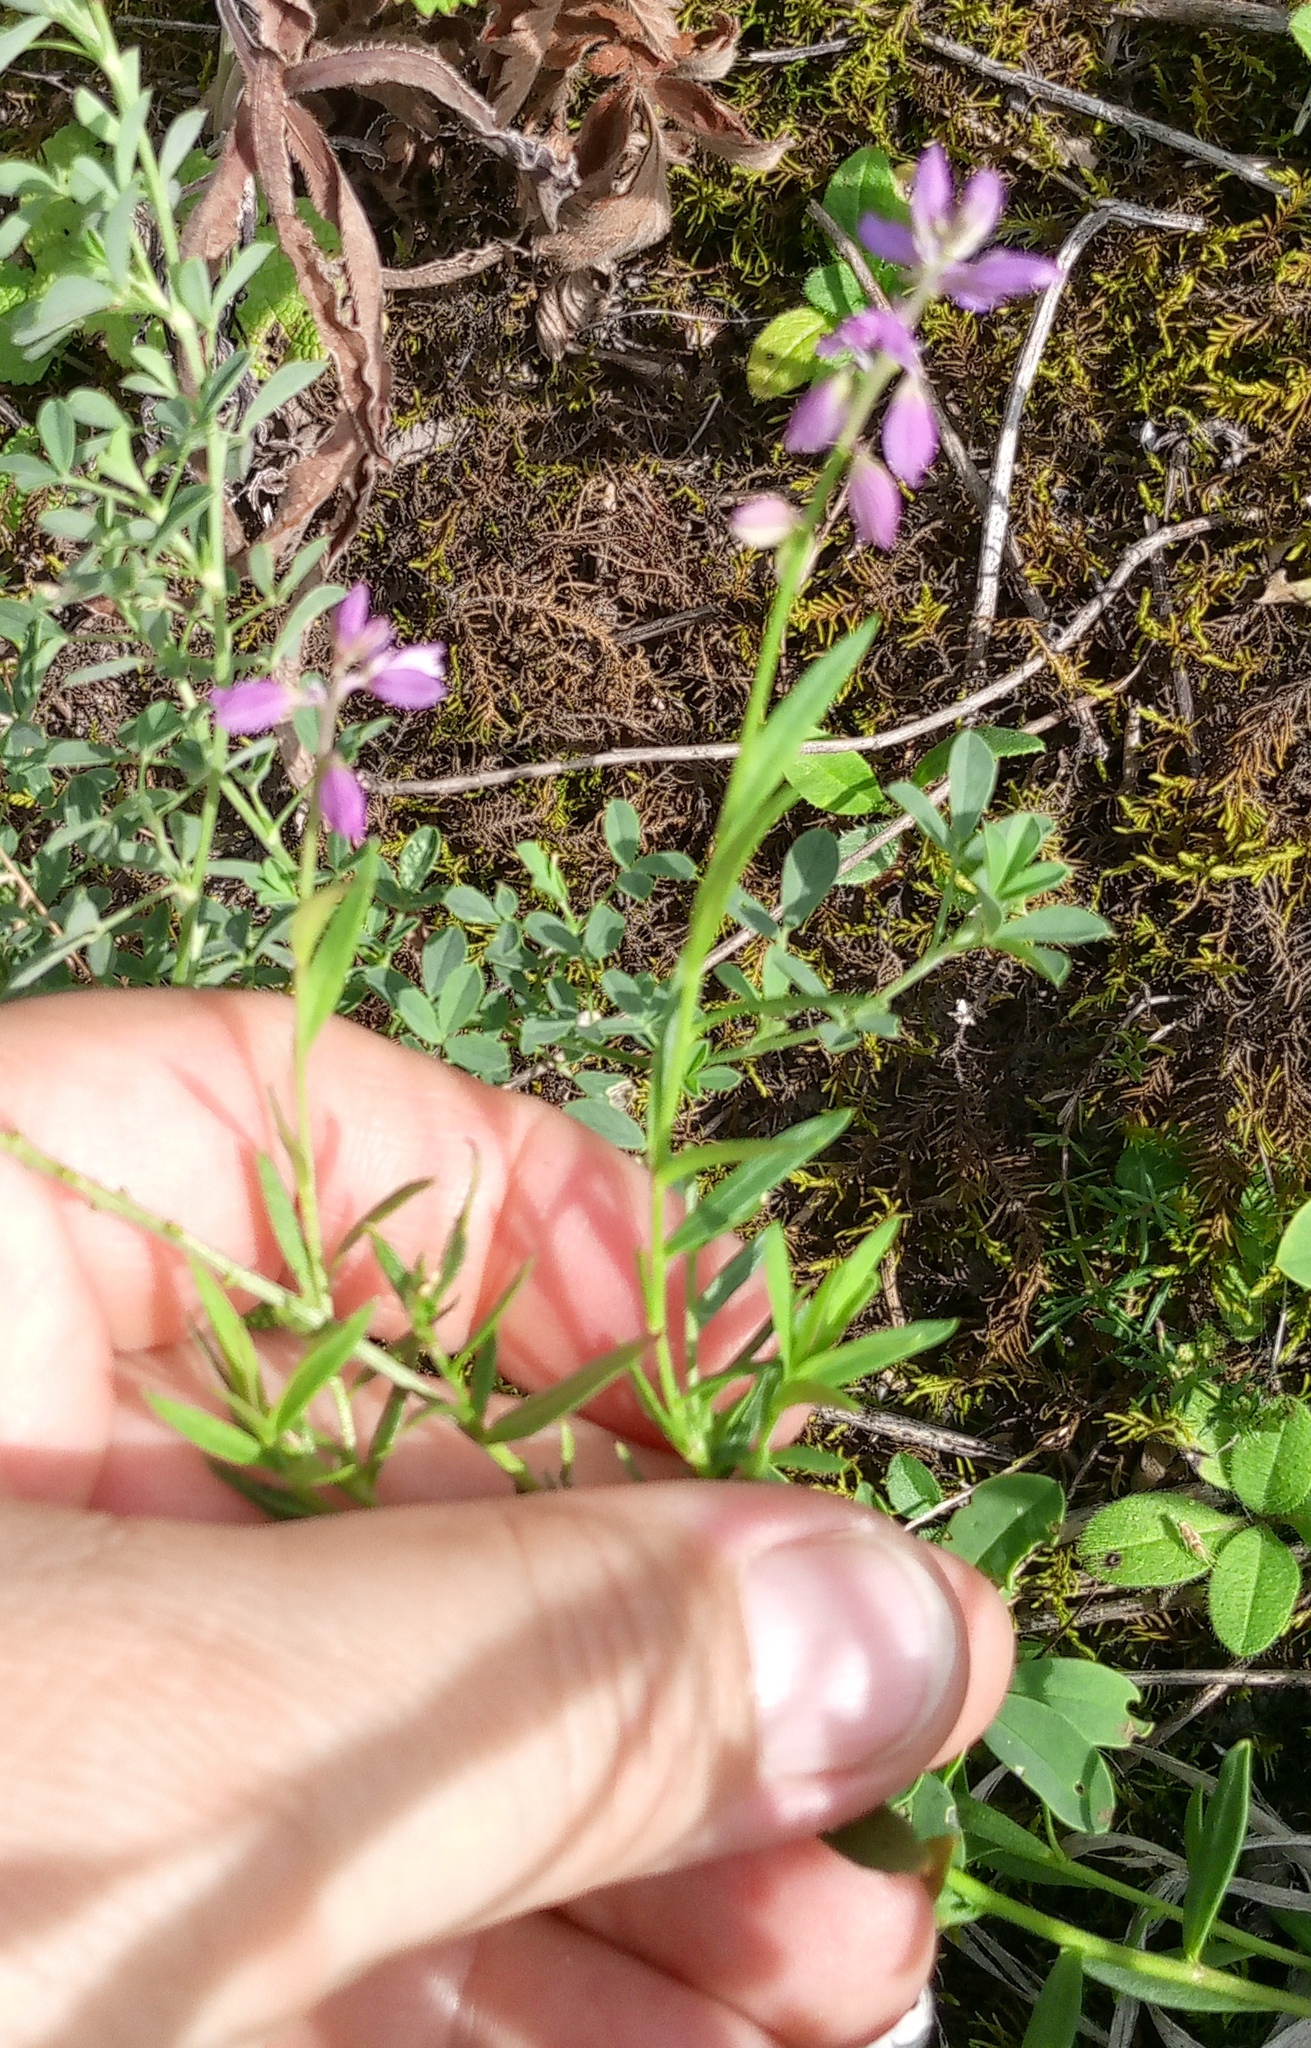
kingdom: Plantae
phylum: Tracheophyta
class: Magnoliopsida
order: Fabales
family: Polygalaceae
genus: Polygala
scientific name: Polygala comosa
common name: Tufted milkwort
